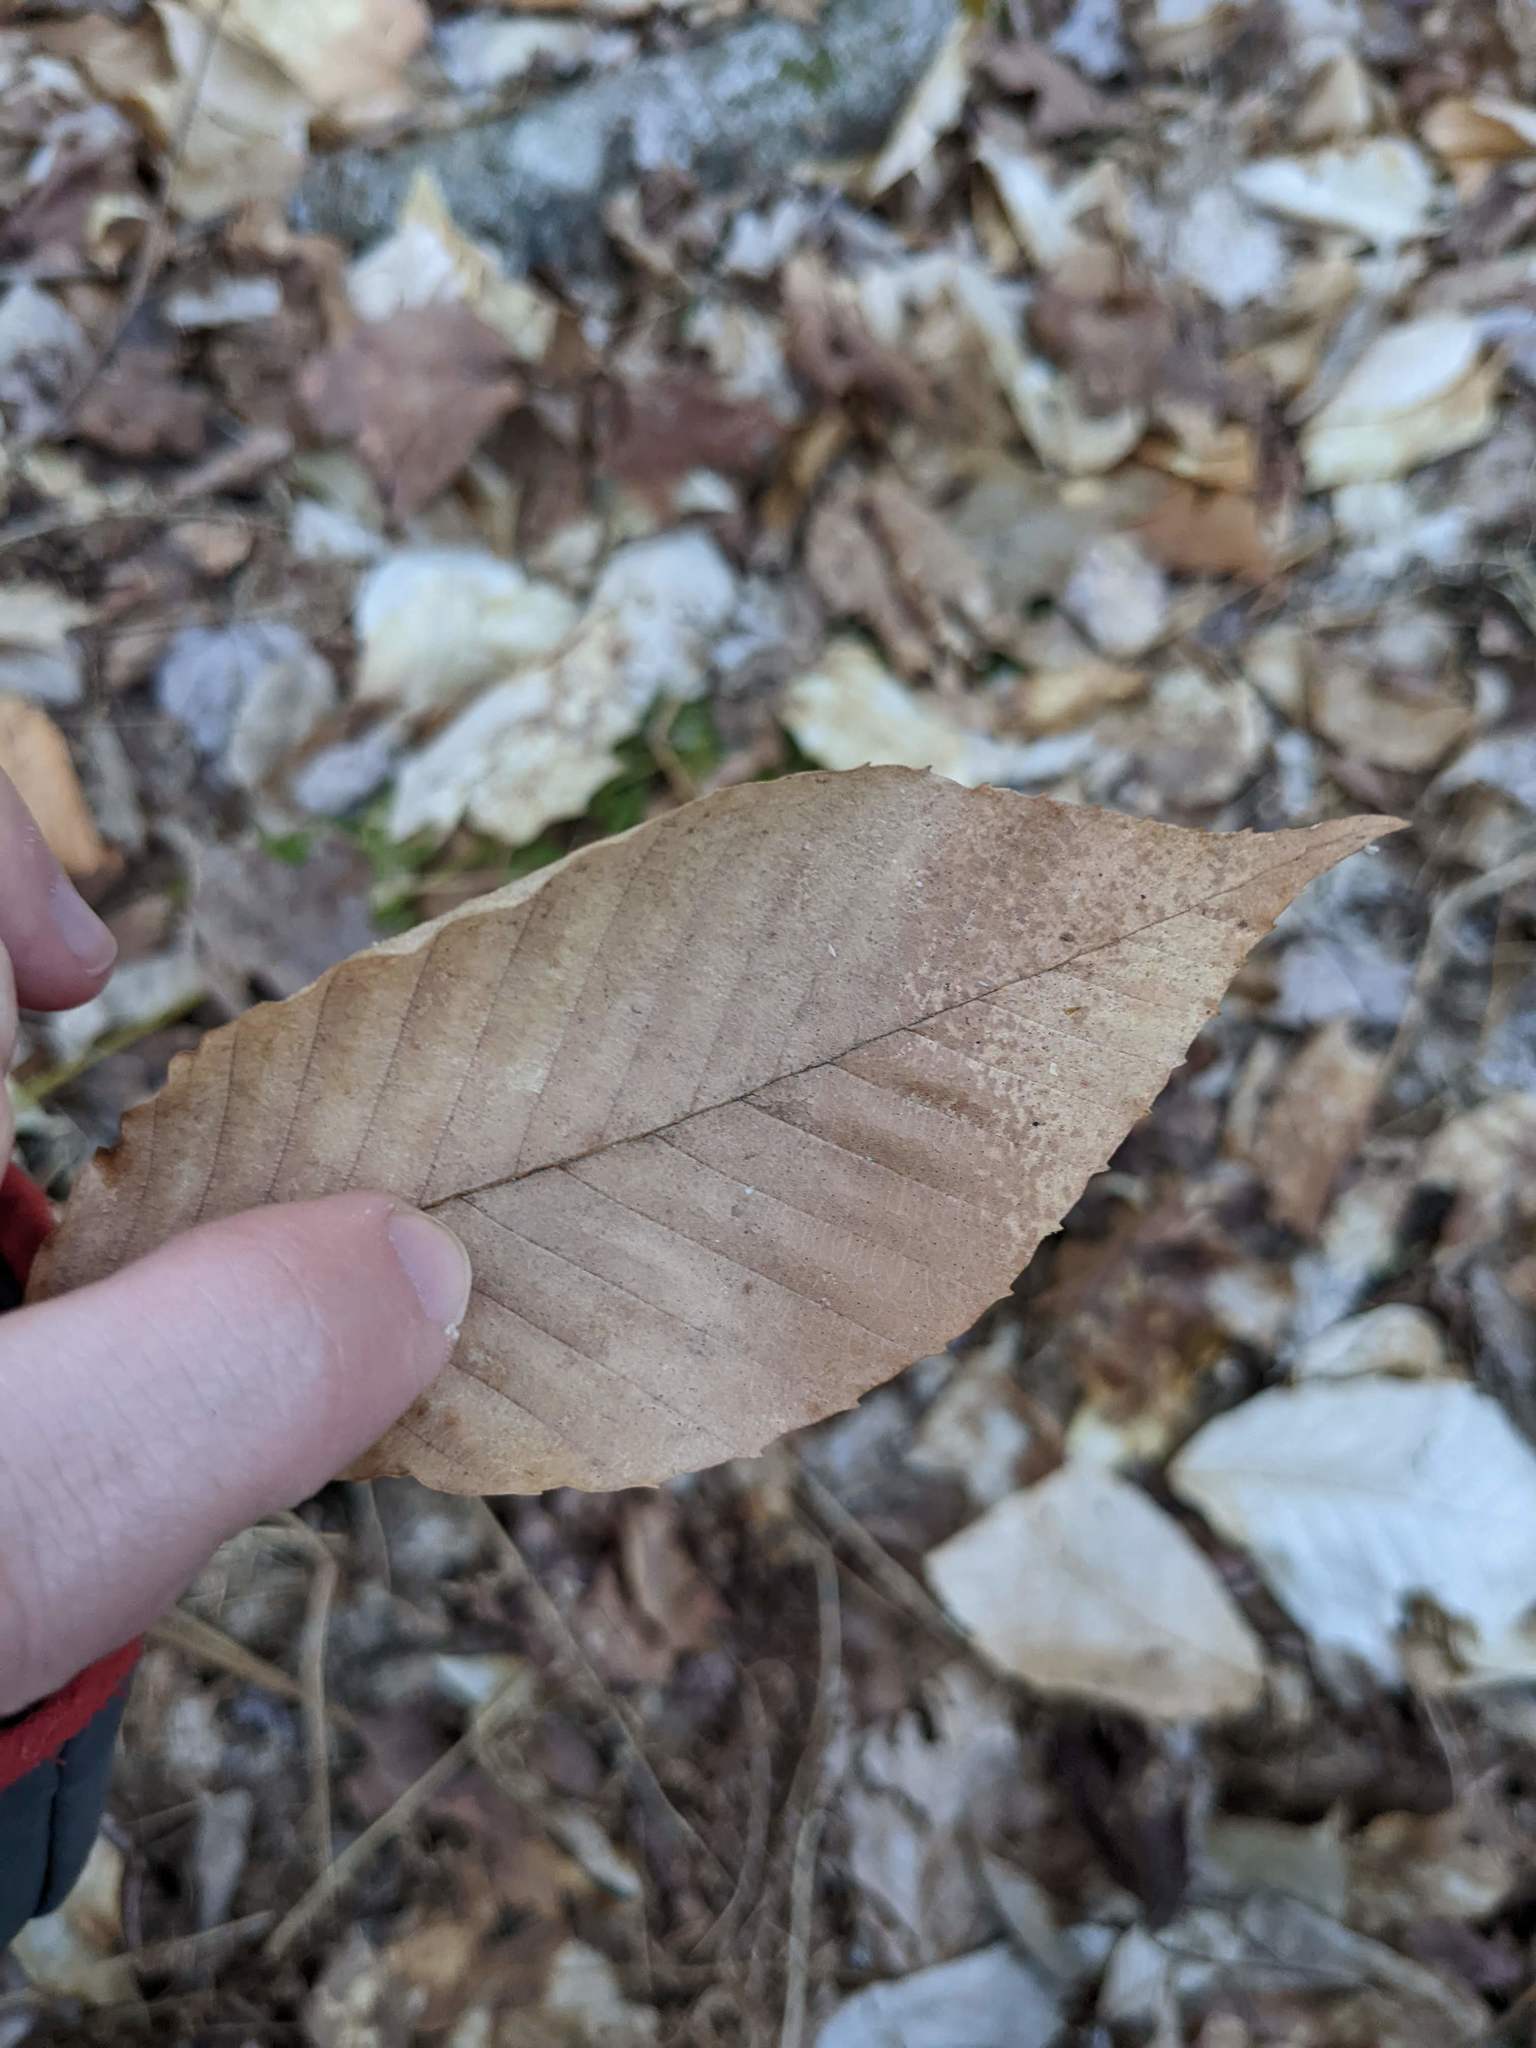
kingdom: Plantae
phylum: Tracheophyta
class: Magnoliopsida
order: Fagales
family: Fagaceae
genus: Fagus
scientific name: Fagus grandifolia
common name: American beech
